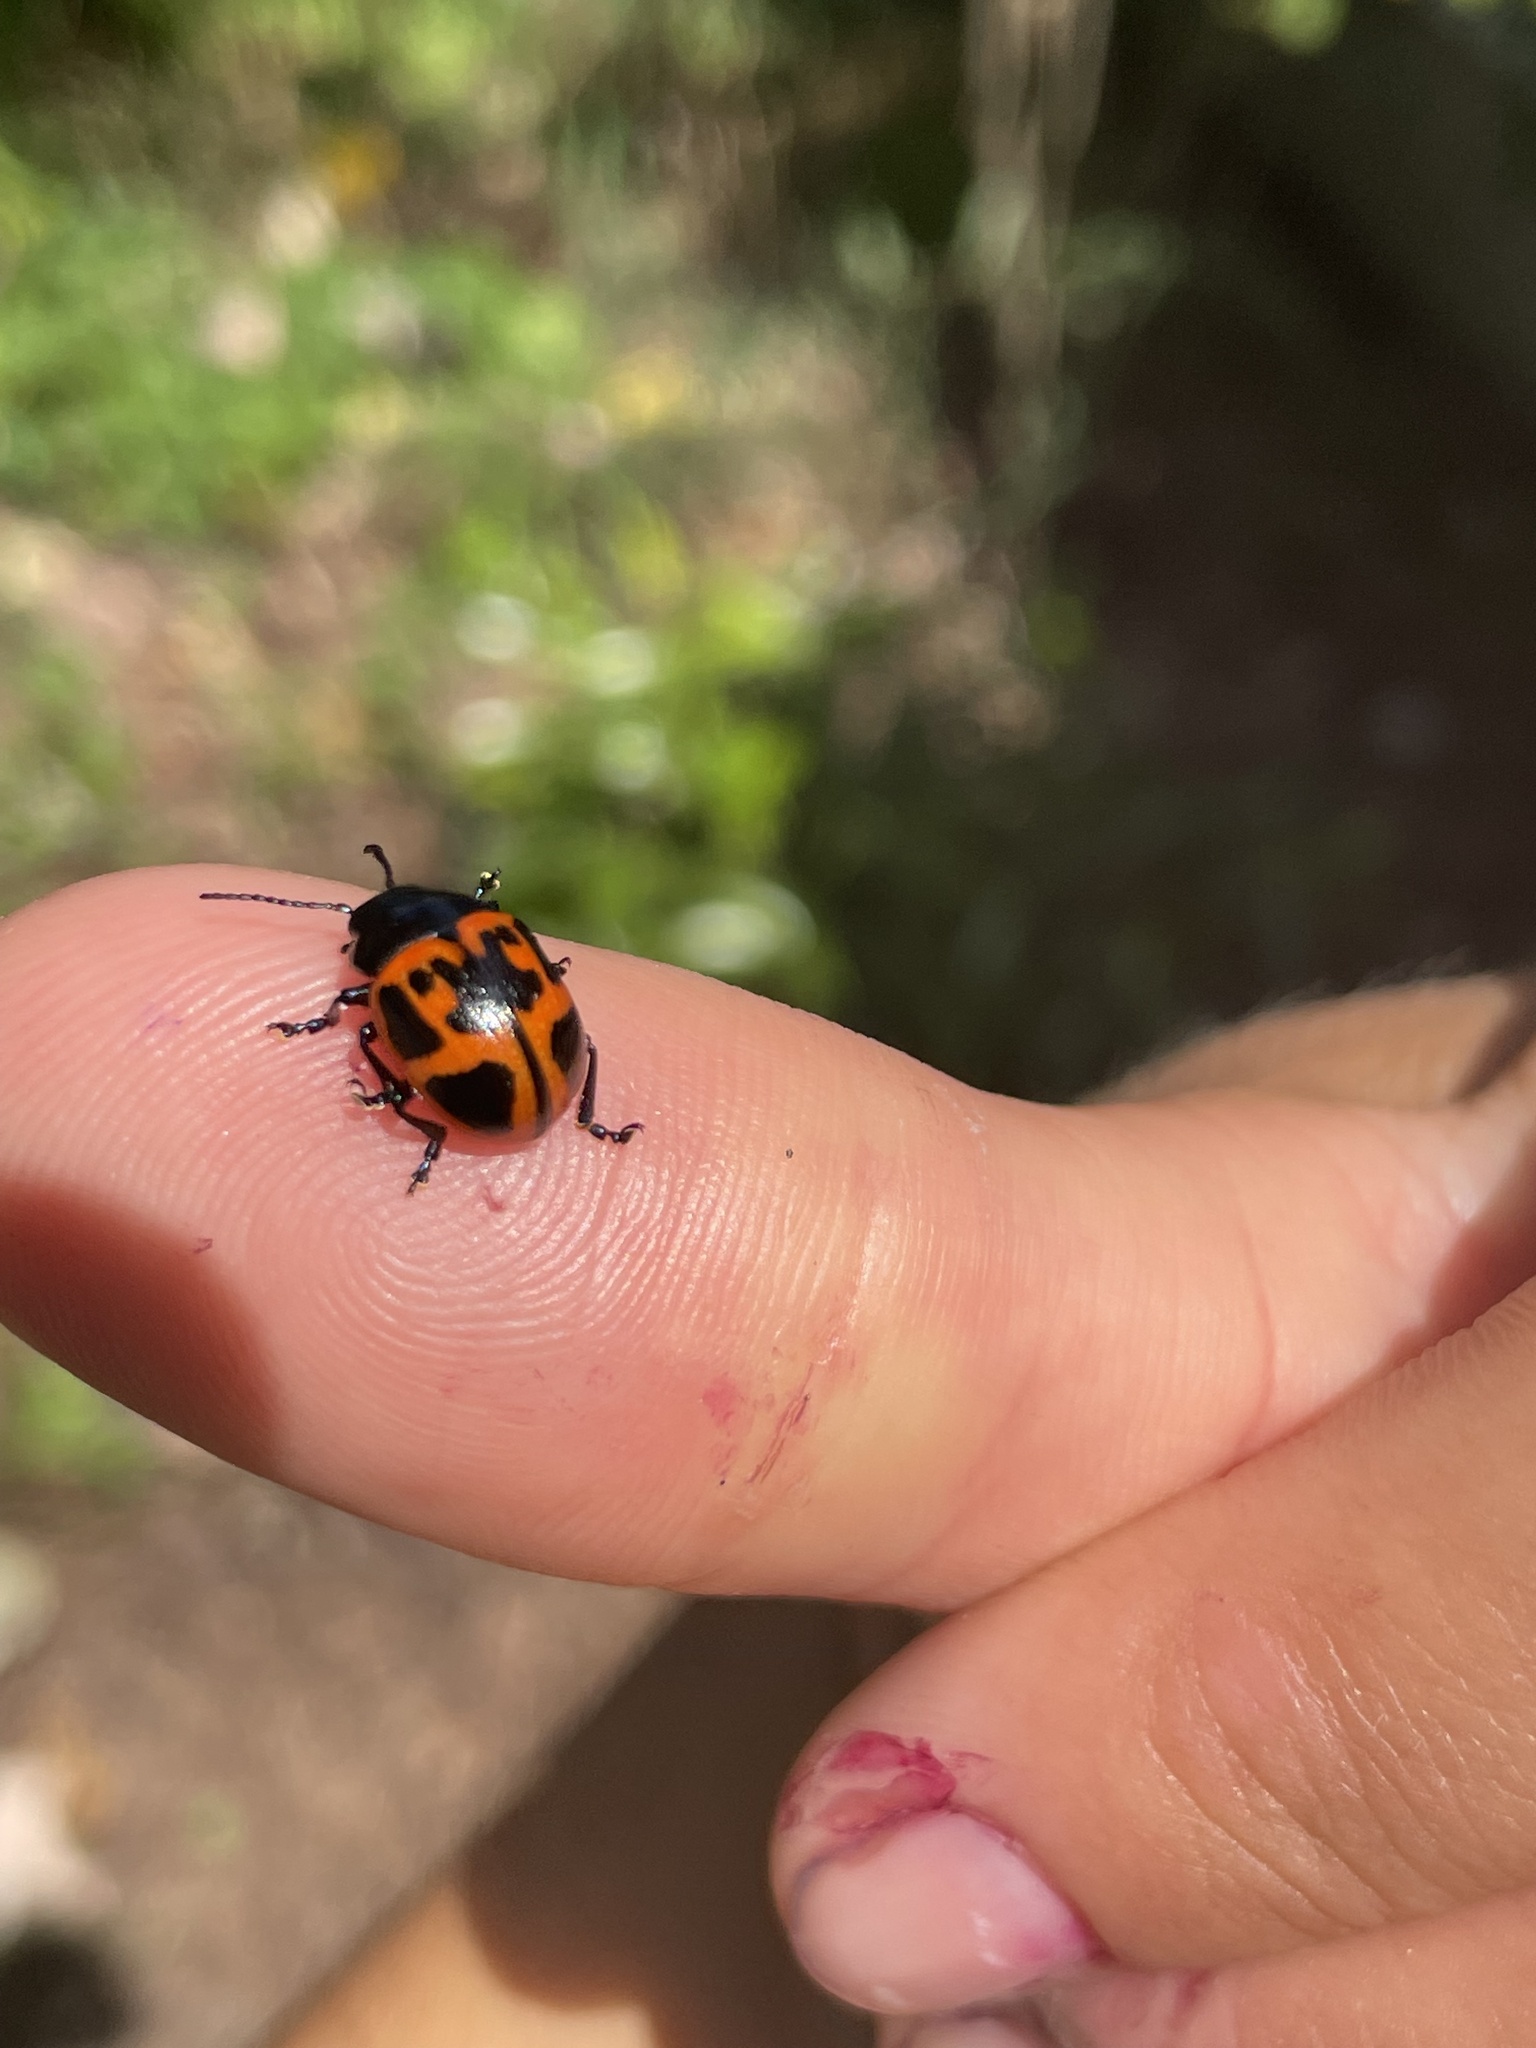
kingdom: Animalia
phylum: Arthropoda
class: Insecta
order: Coleoptera
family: Chrysomelidae
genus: Labidomera
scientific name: Labidomera clivicollis
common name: Swamp milkweed leaf beetle
